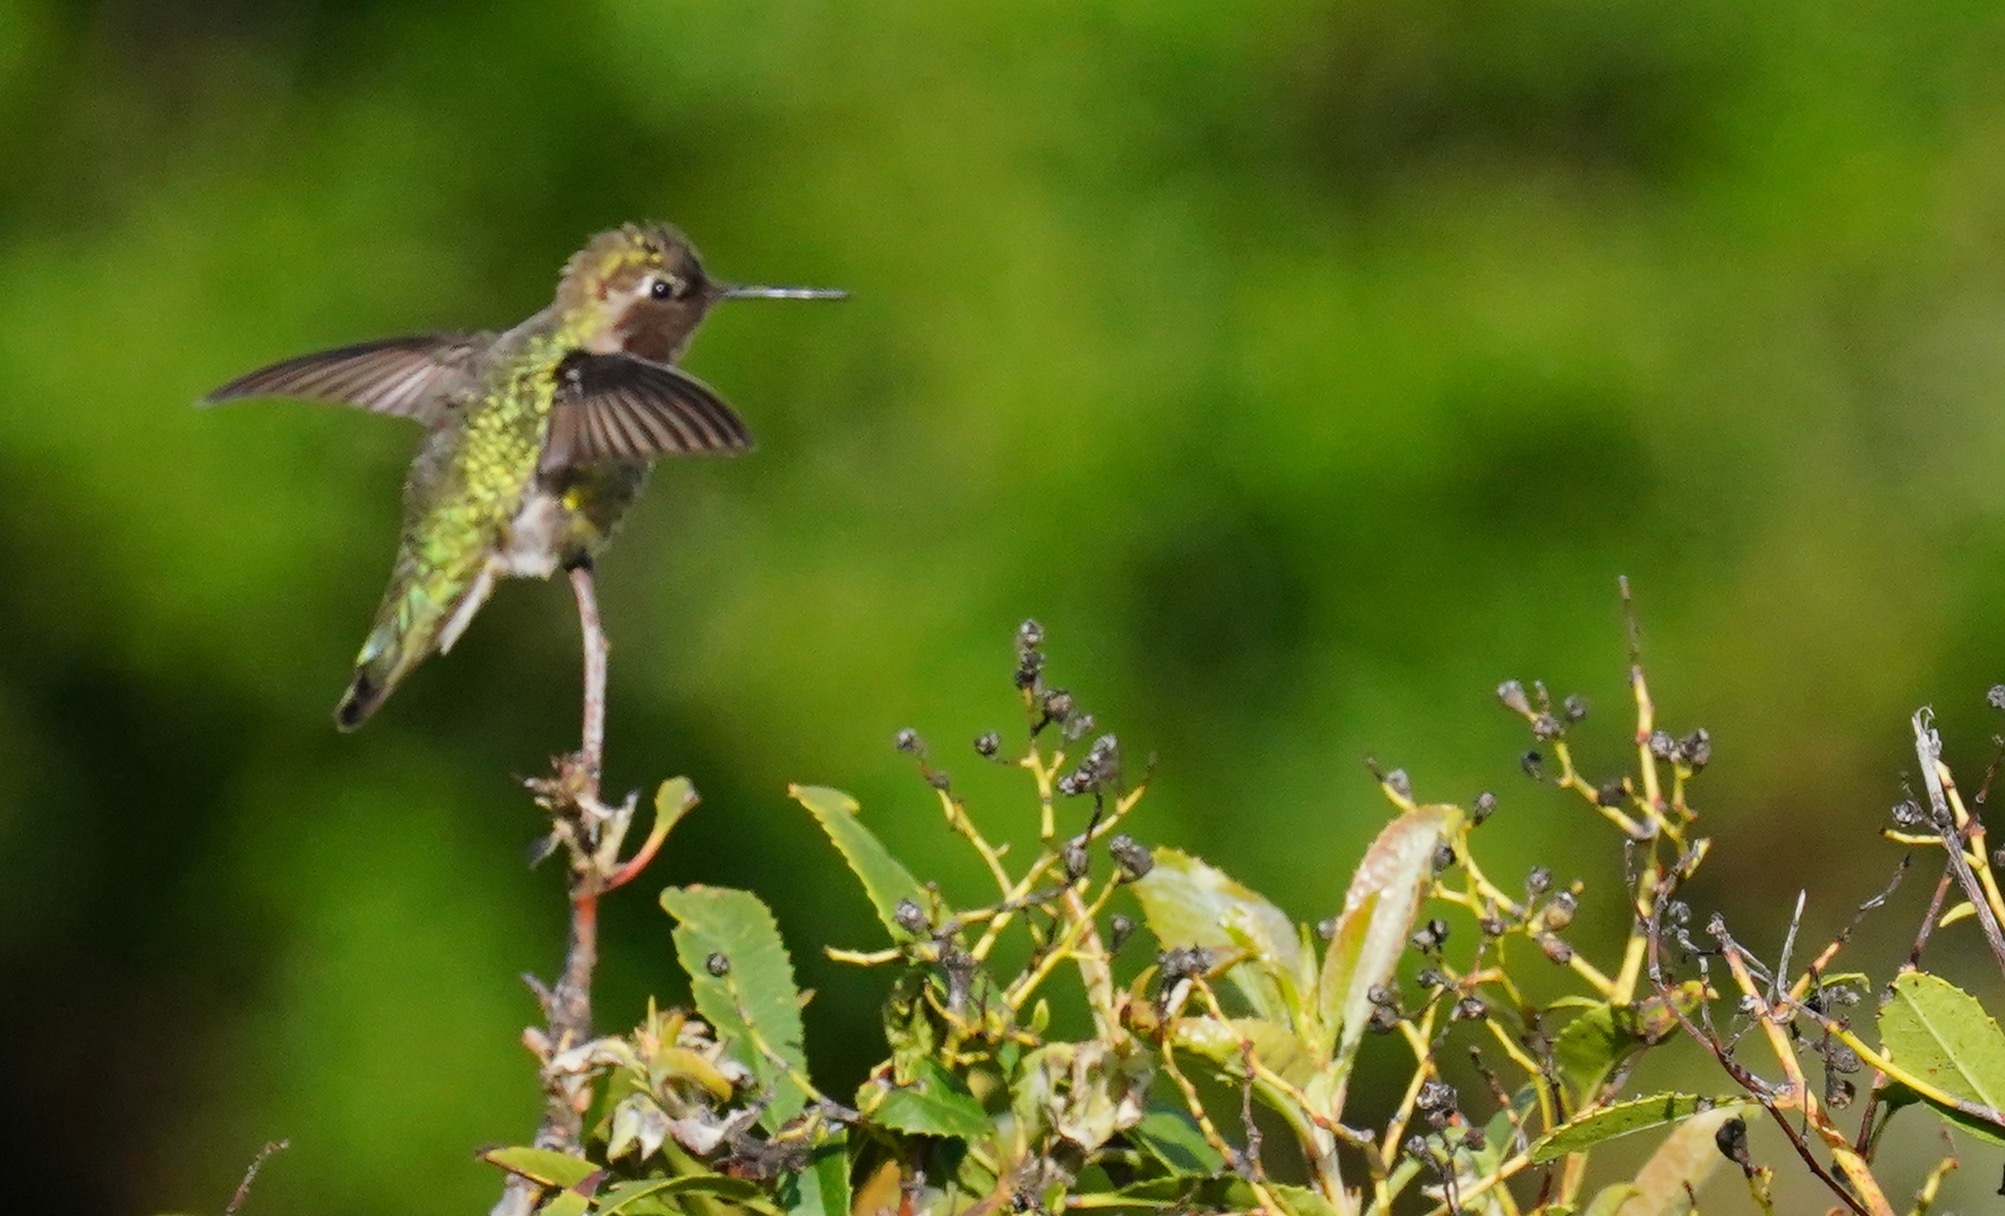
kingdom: Animalia
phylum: Chordata
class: Aves
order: Apodiformes
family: Trochilidae
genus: Calypte
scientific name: Calypte anna
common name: Anna's hummingbird
